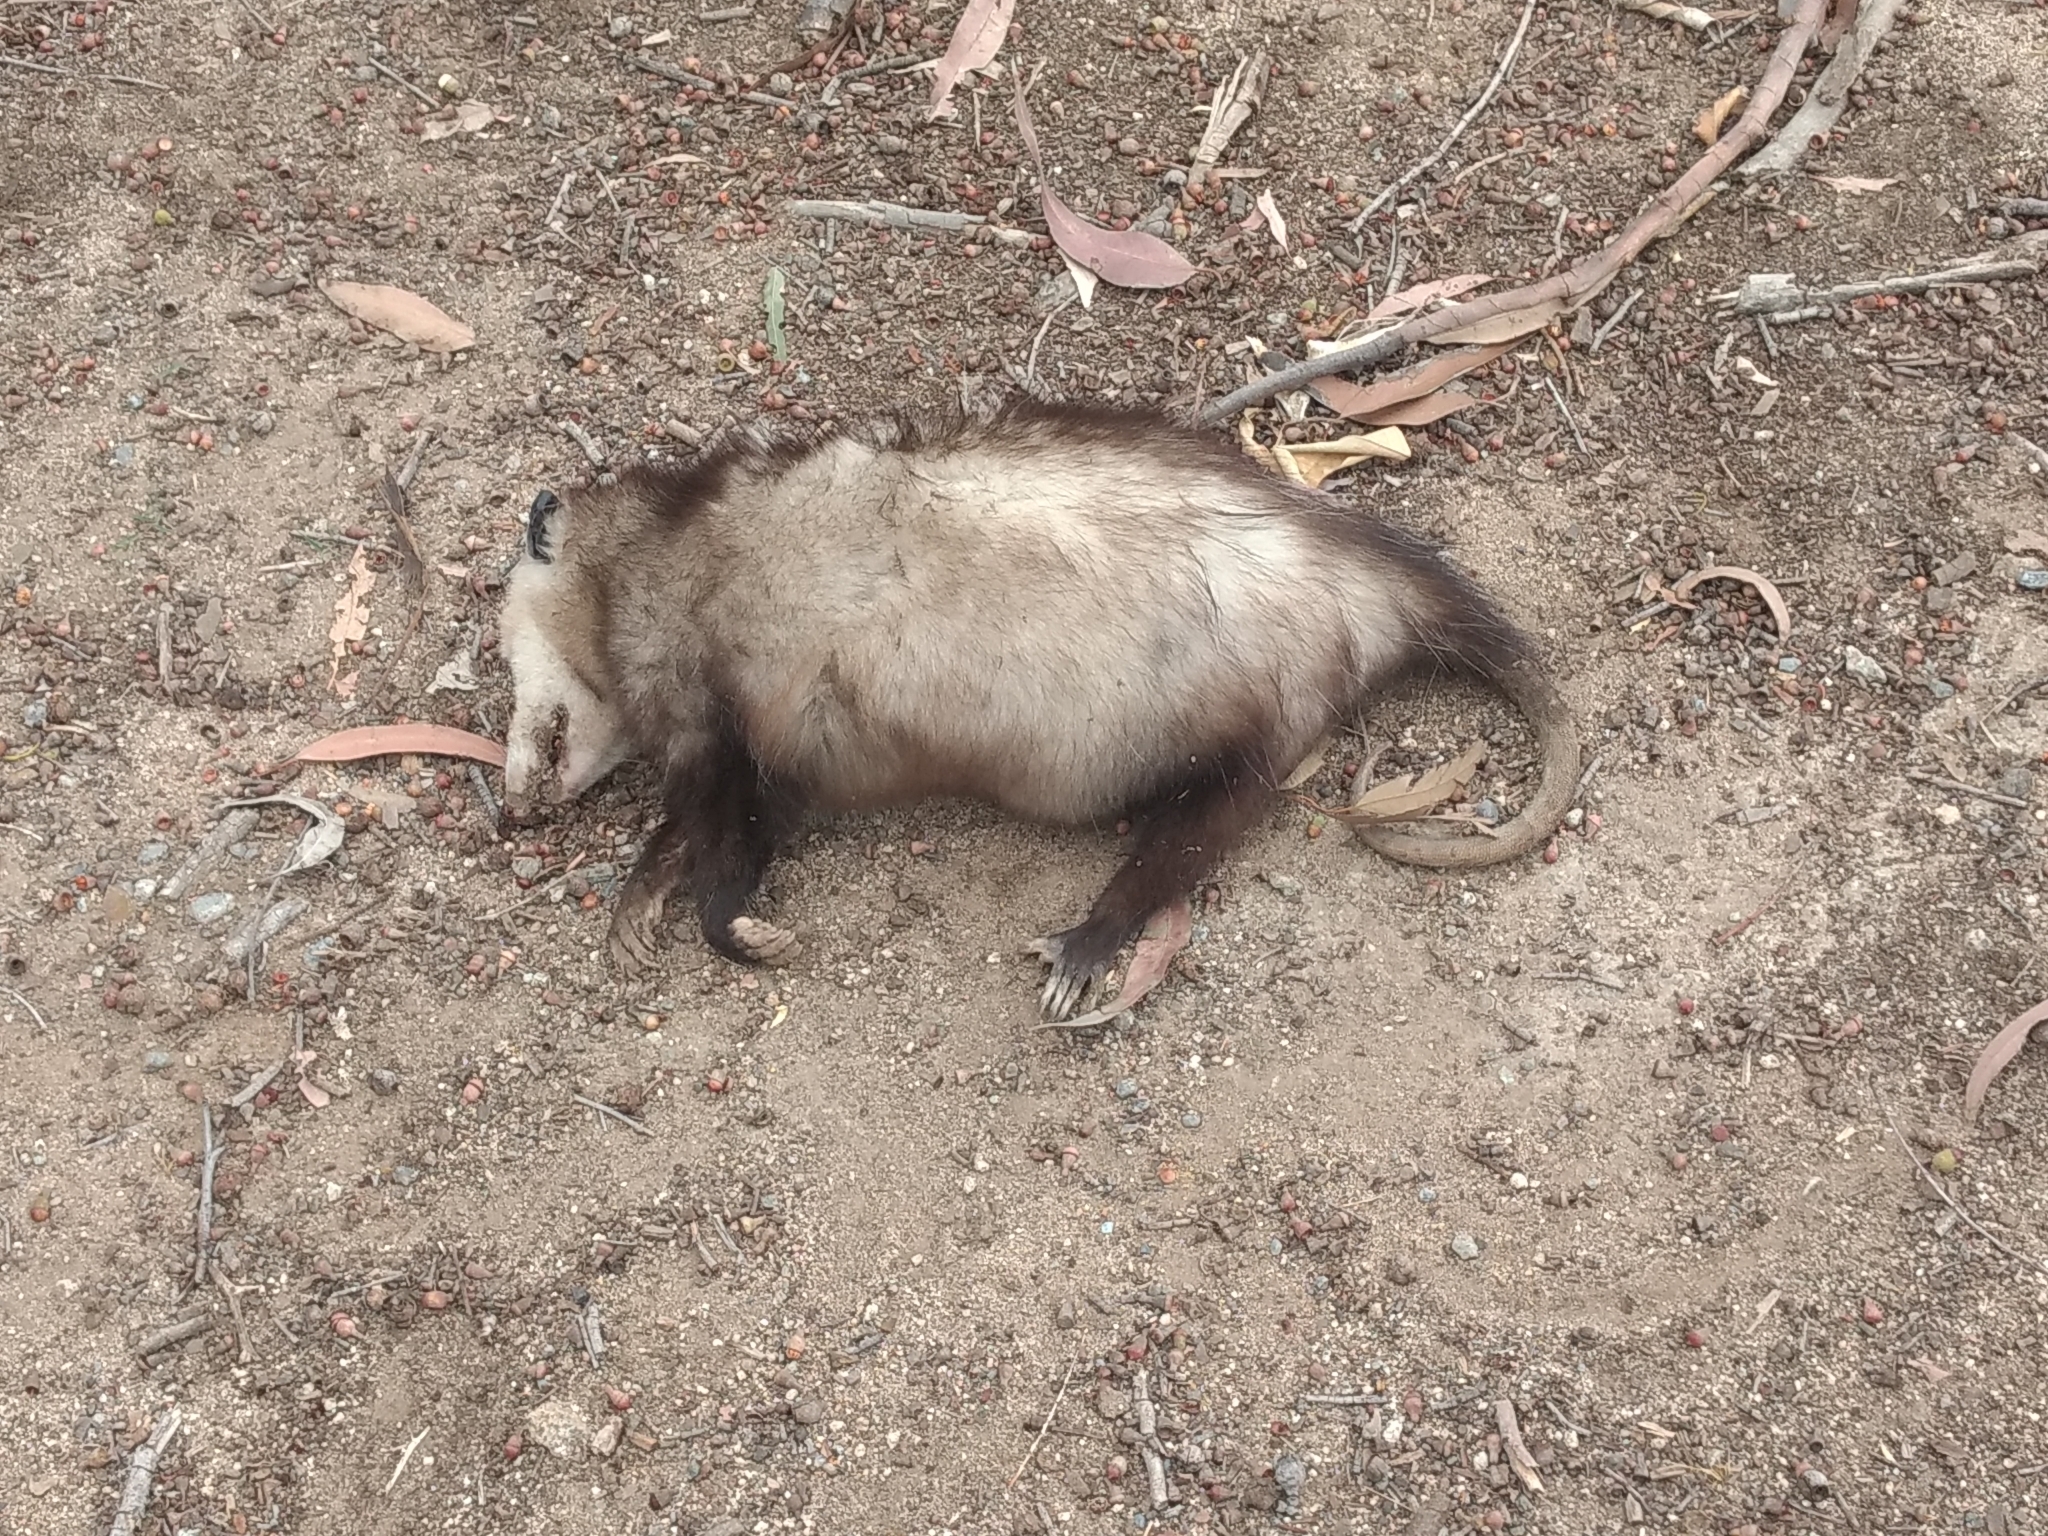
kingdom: Animalia
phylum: Chordata
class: Mammalia
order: Didelphimorphia
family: Didelphidae
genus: Didelphis
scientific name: Didelphis virginiana
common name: Virginia opossum
